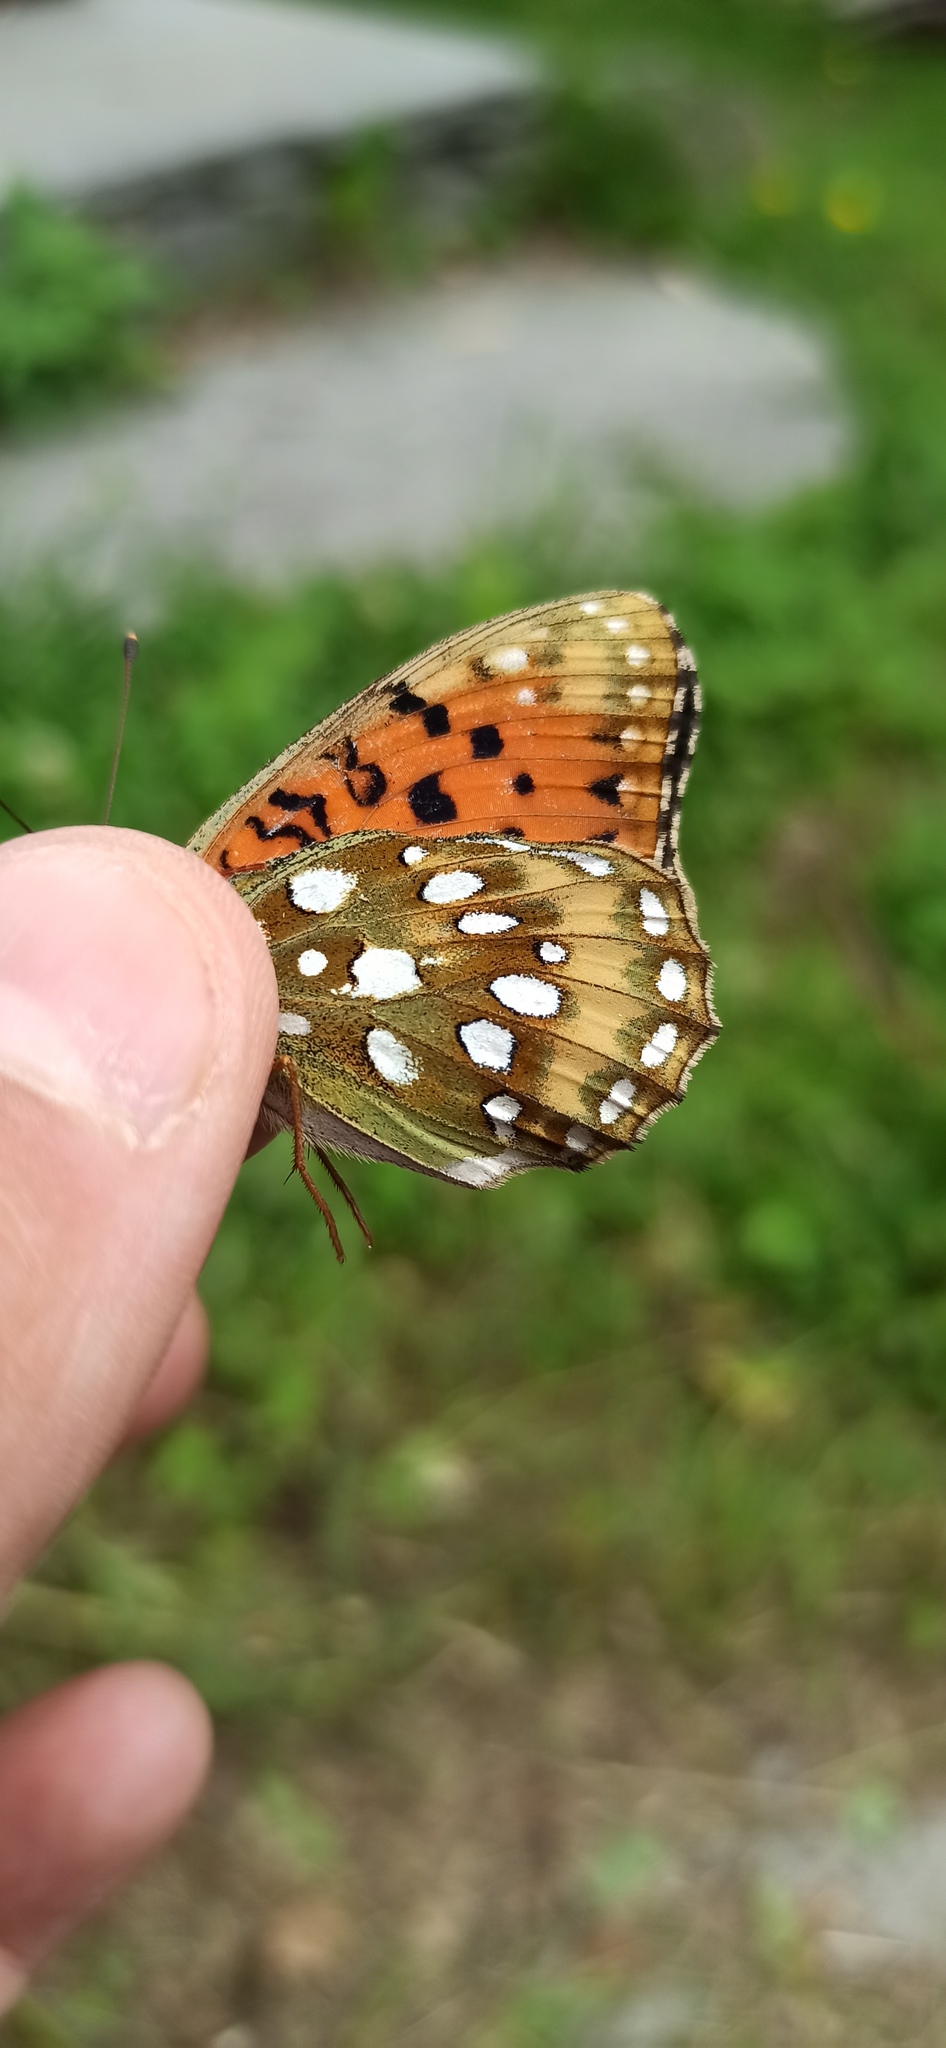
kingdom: Animalia
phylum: Arthropoda
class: Insecta
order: Lepidoptera
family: Nymphalidae
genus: Speyeria
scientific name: Speyeria aglaja
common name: Dark green fritillary
